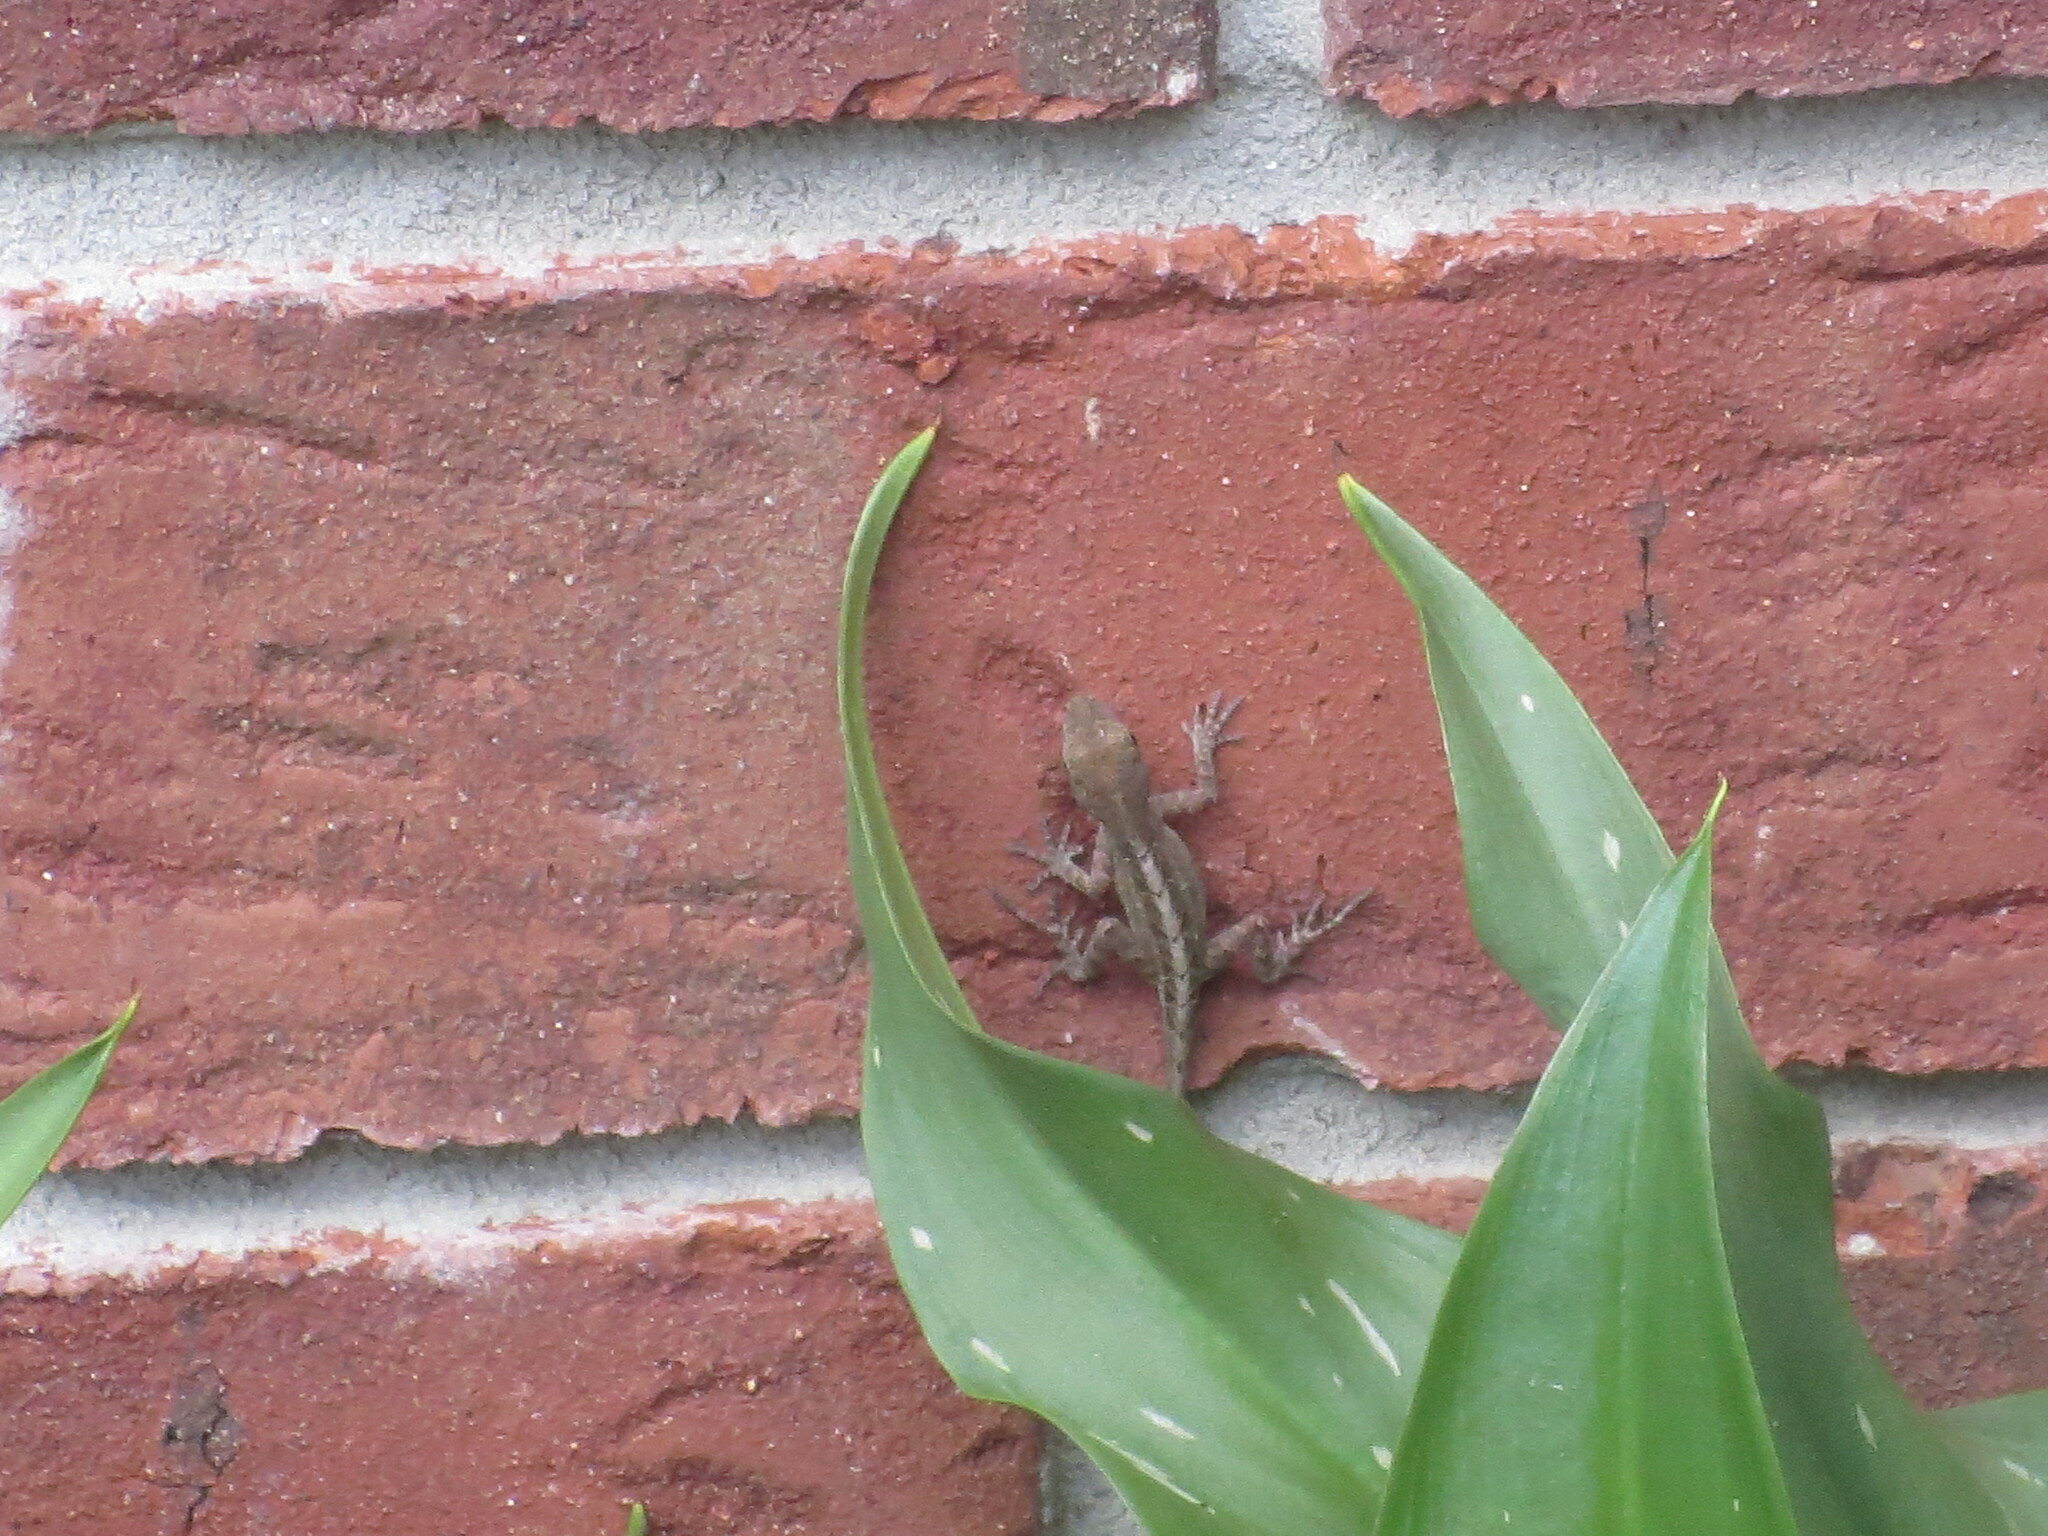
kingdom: Animalia
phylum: Chordata
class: Squamata
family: Dactyloidae
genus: Anolis
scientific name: Anolis sagrei
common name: Brown anole
